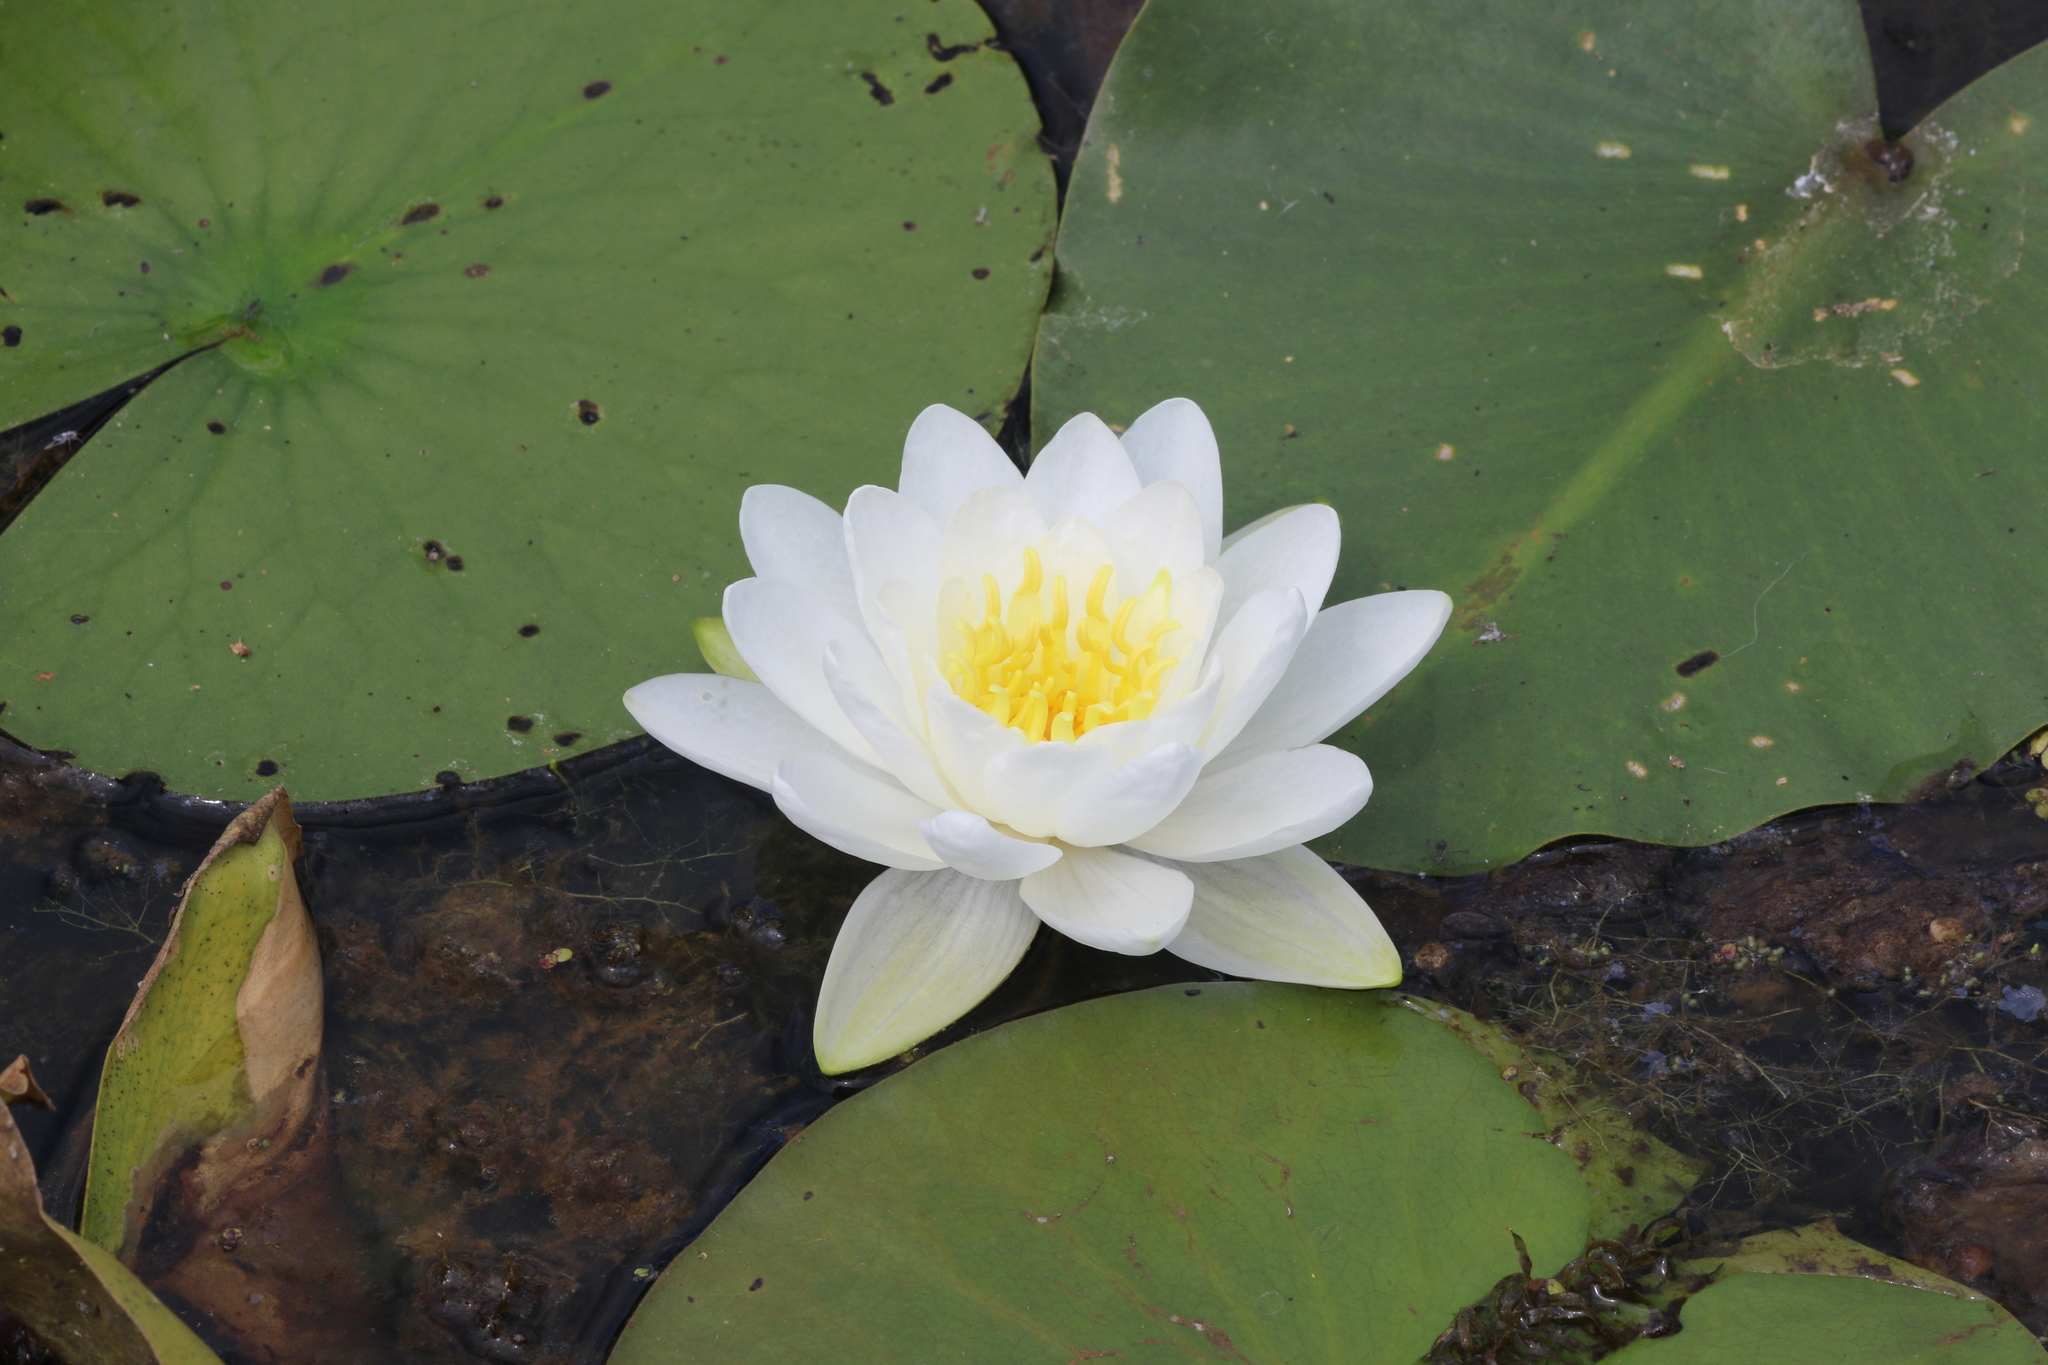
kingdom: Plantae
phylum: Tracheophyta
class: Magnoliopsida
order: Nymphaeales
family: Nymphaeaceae
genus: Nymphaea
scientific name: Nymphaea odorata
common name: Fragrant water-lily
